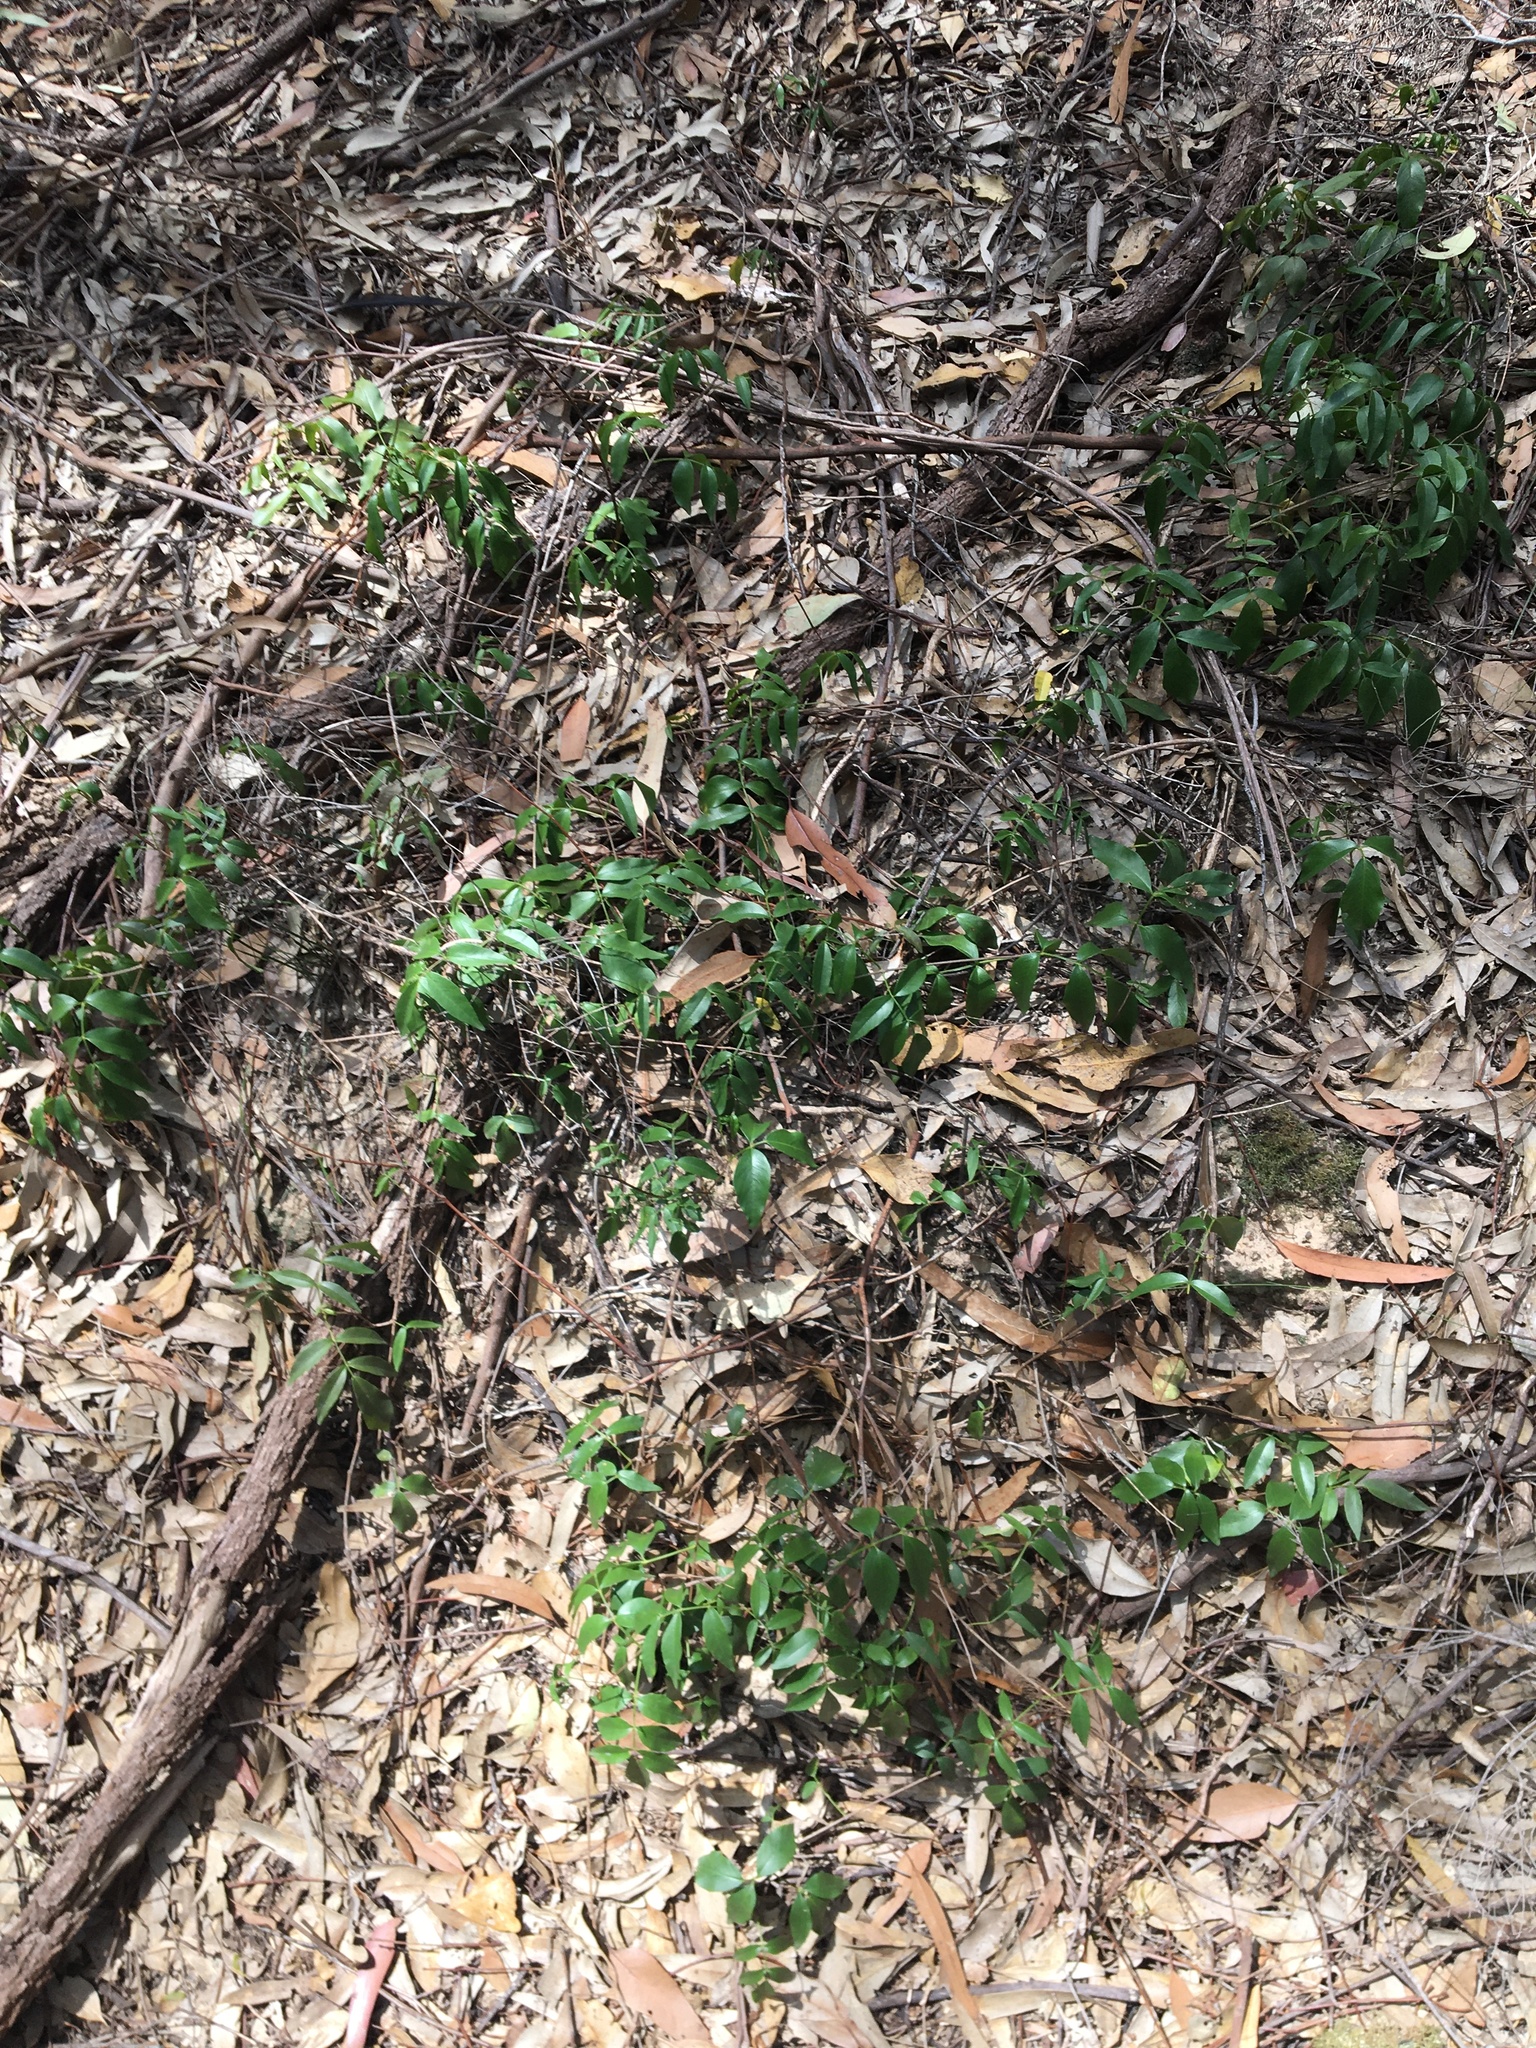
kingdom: Plantae
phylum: Tracheophyta
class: Magnoliopsida
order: Lamiales
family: Bignoniaceae
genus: Pandorea
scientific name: Pandorea pandorana
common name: Wonga-wonga-vine
